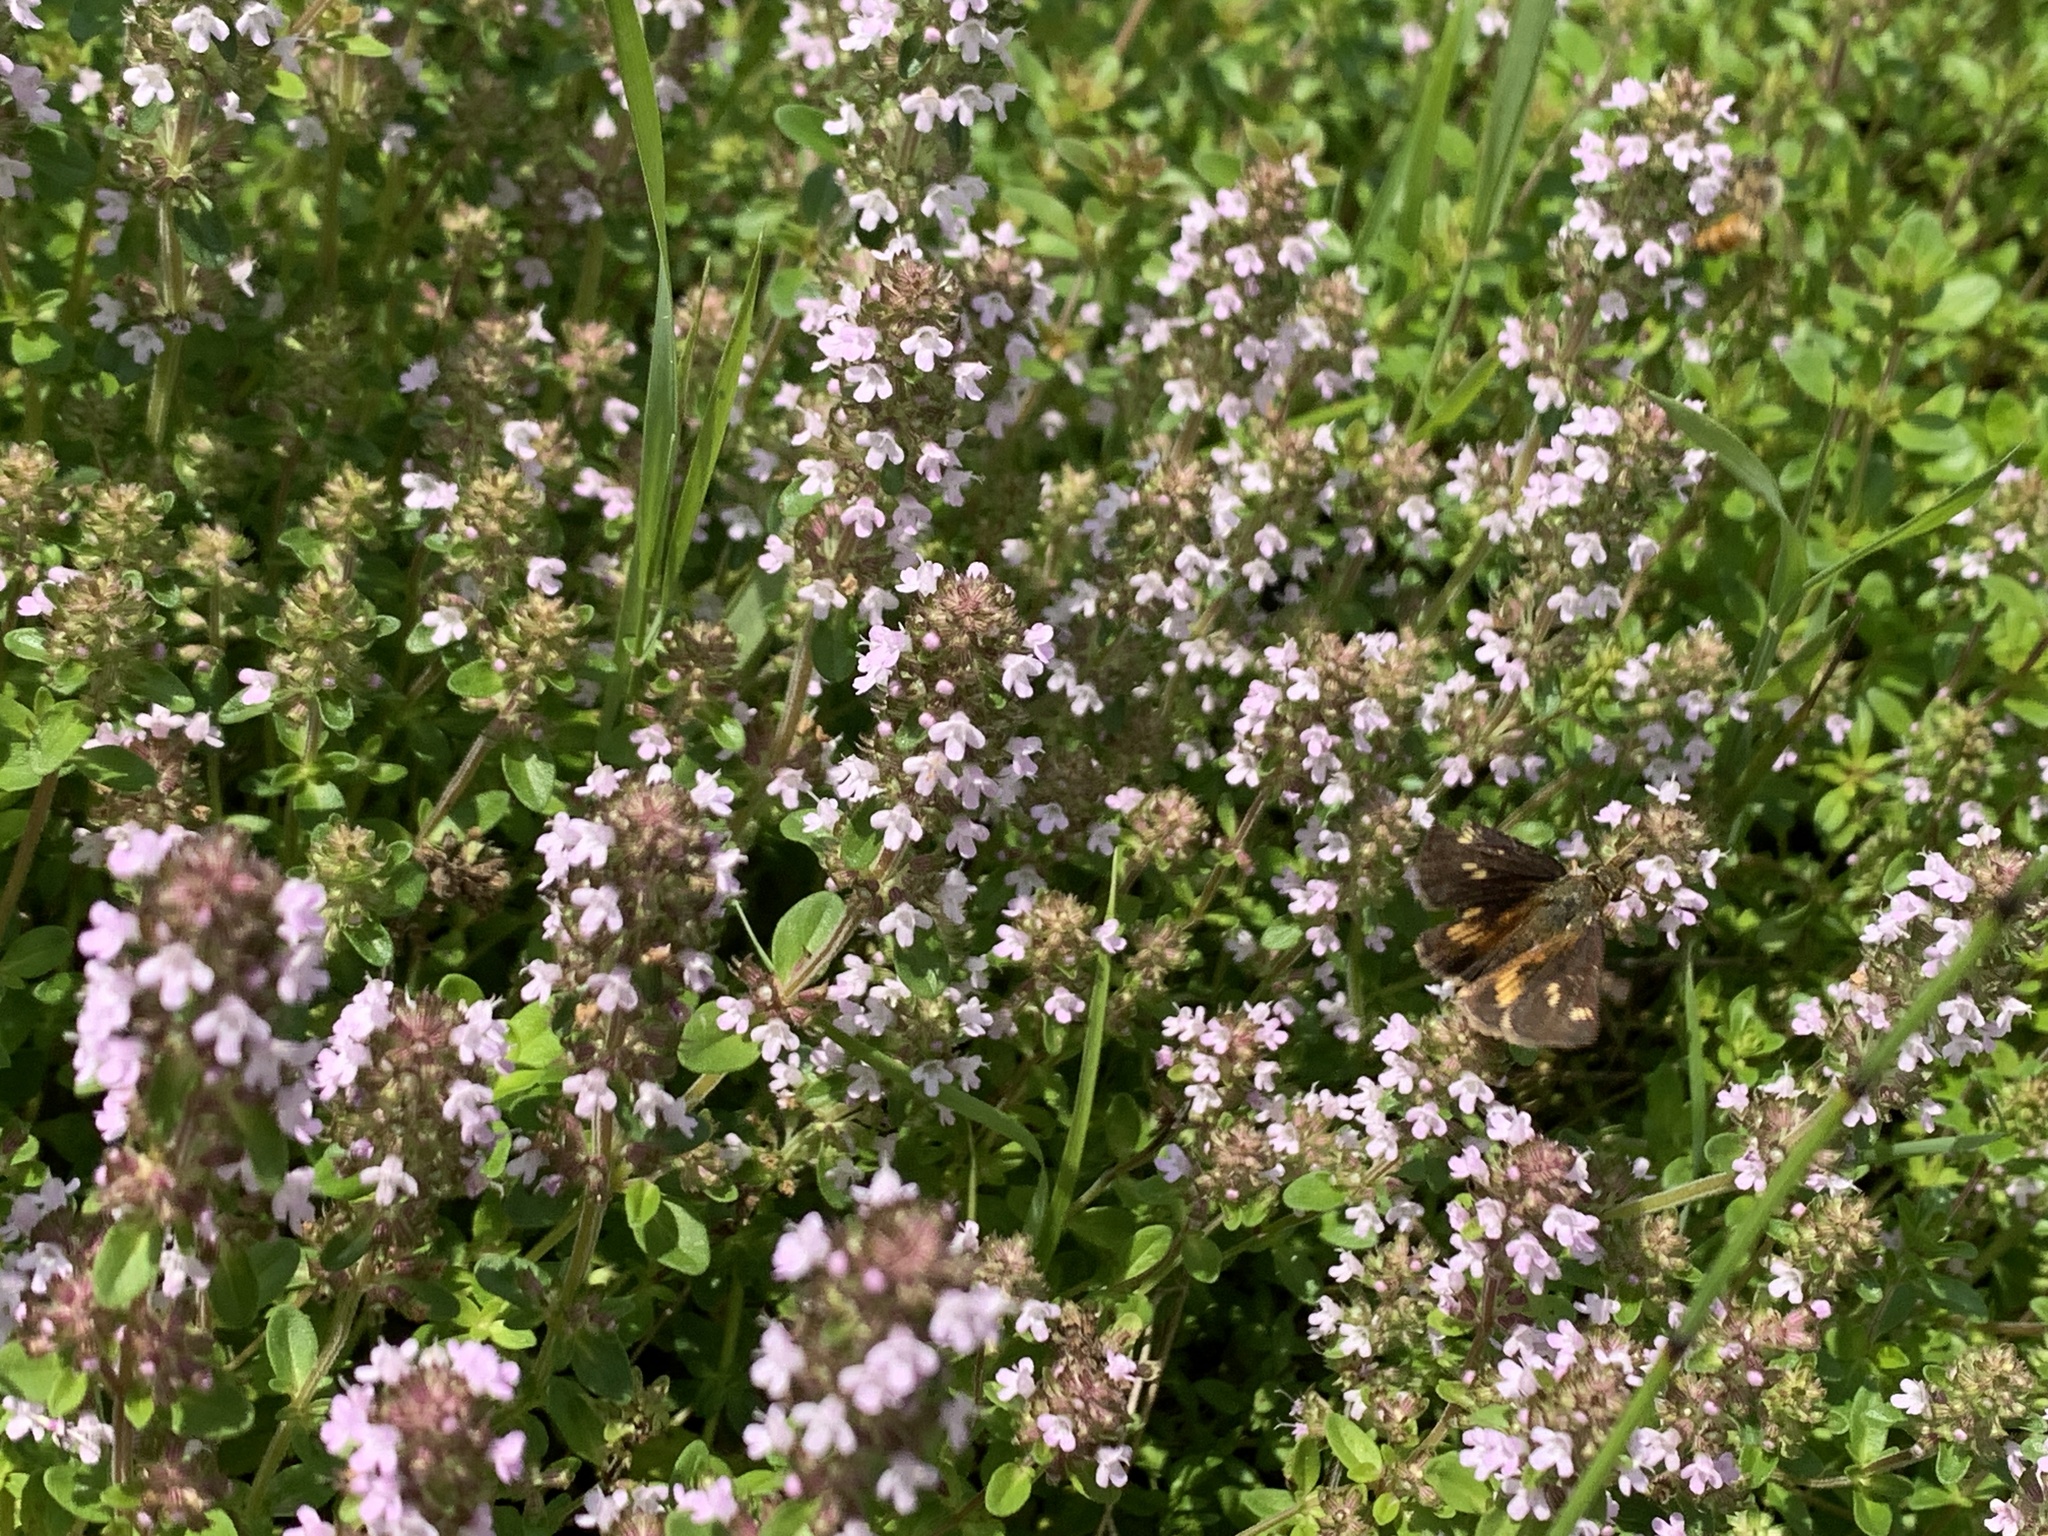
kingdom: Animalia
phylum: Arthropoda
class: Insecta
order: Lepidoptera
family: Hesperiidae
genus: Poanes
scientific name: Poanes massasoit
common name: Mulberrywing
